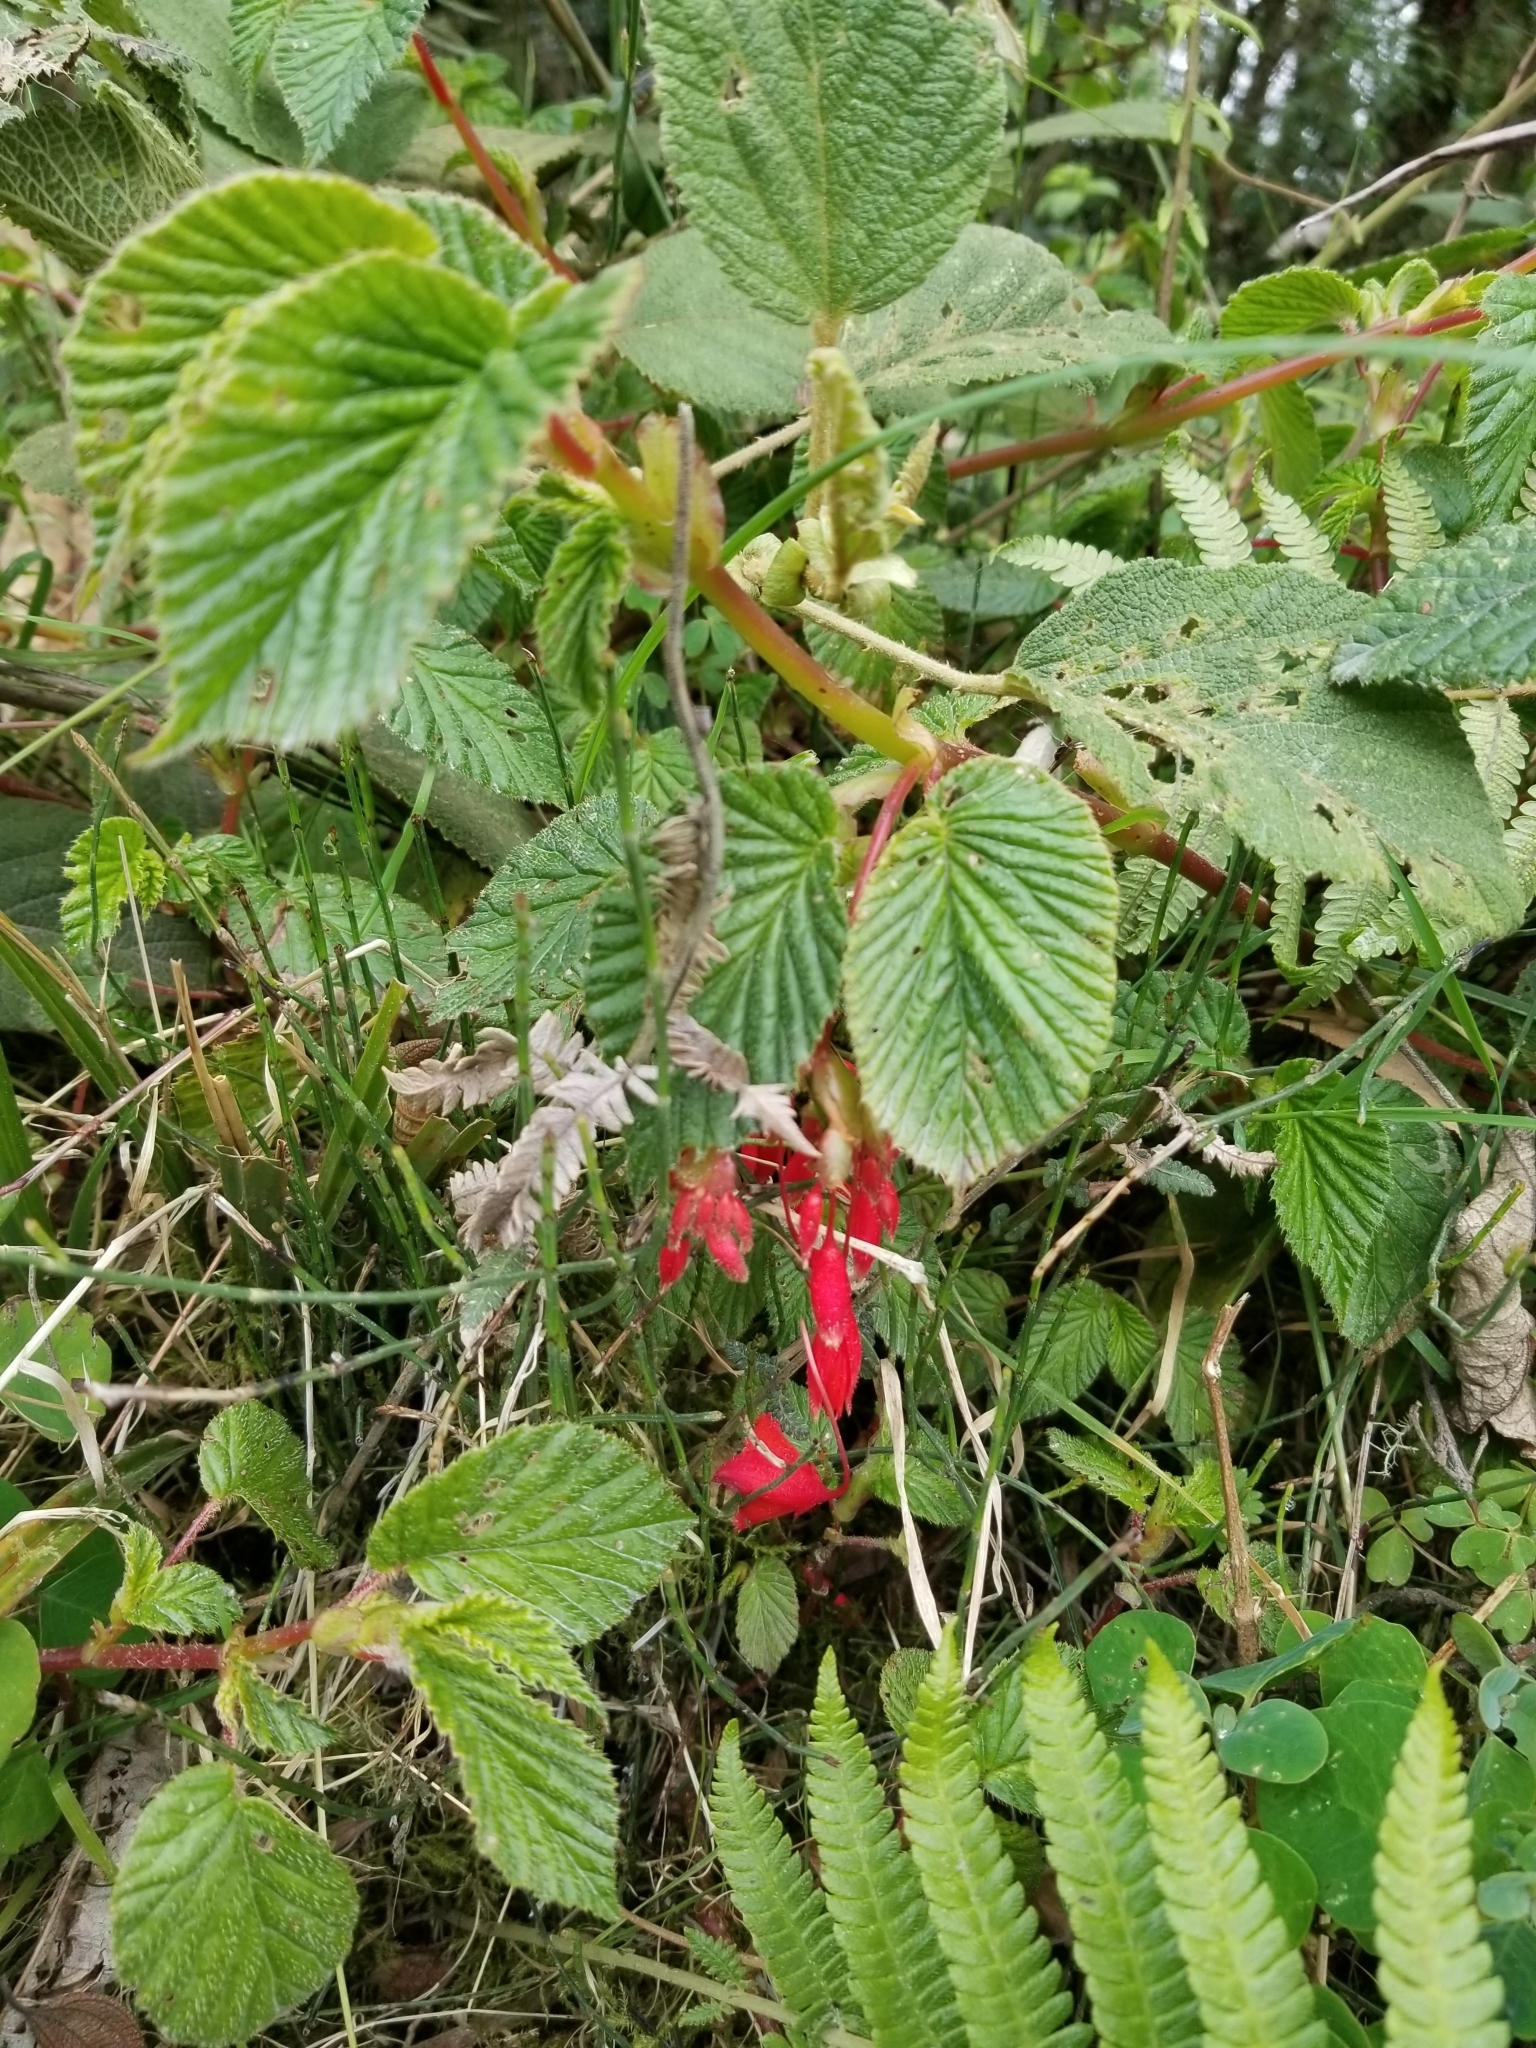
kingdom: Plantae
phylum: Tracheophyta
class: Magnoliopsida
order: Cucurbitales
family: Begoniaceae
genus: Begonia
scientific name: Begonia umbellata
